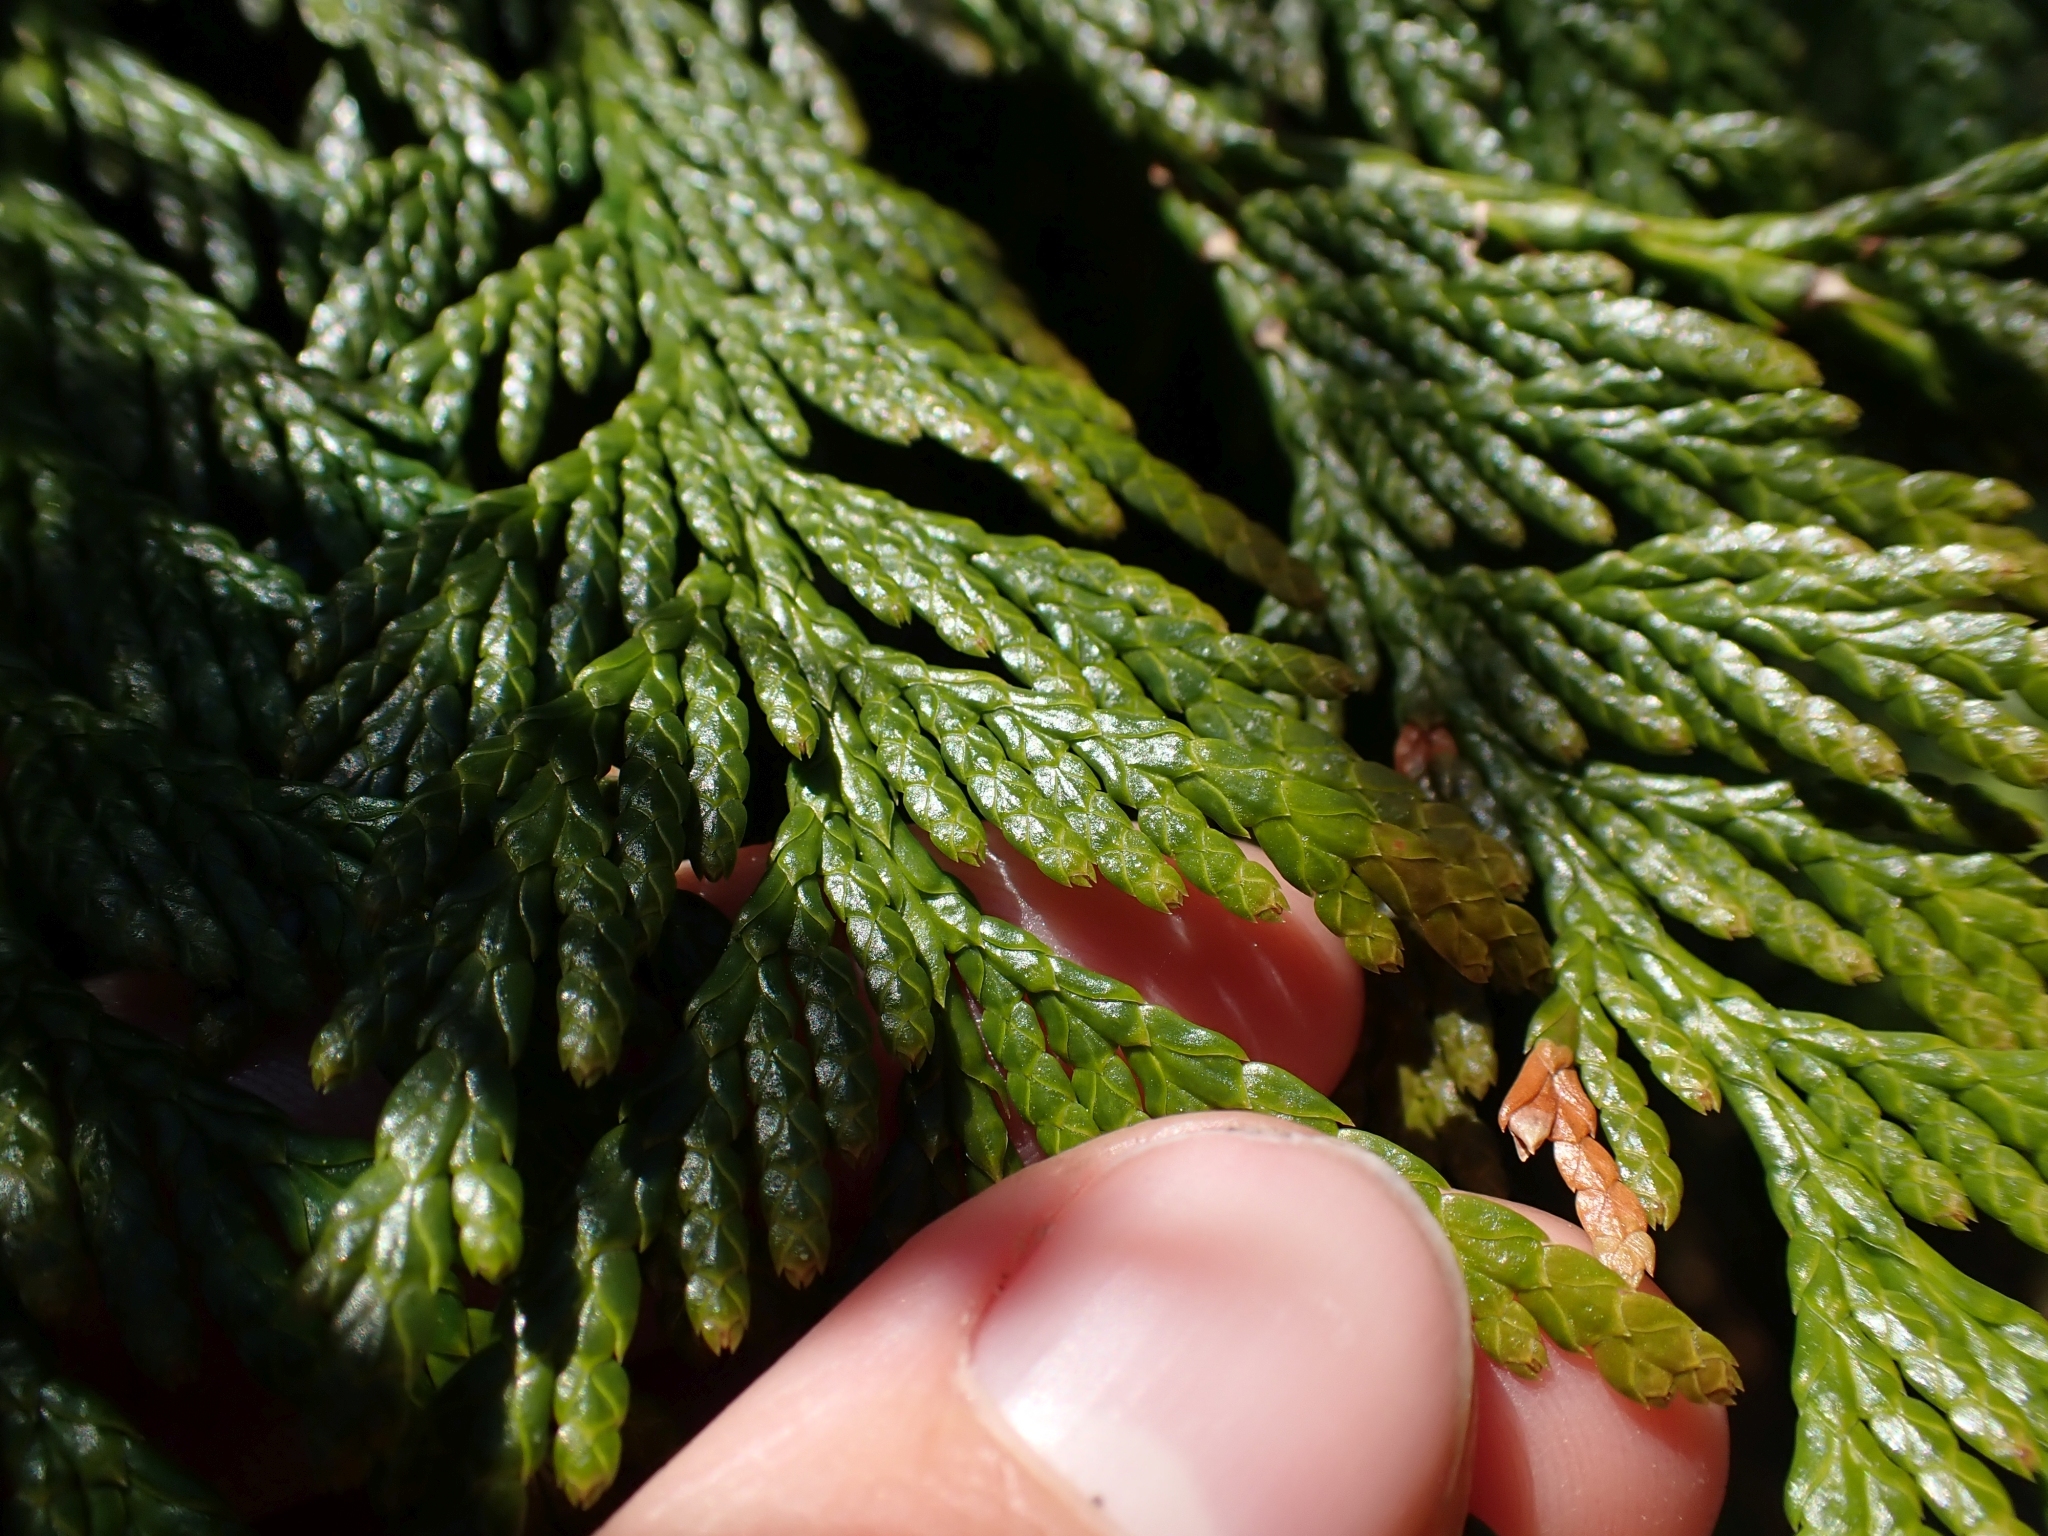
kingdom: Plantae
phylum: Tracheophyta
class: Pinopsida
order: Pinales
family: Cupressaceae
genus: Thuja
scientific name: Thuja plicata
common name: Western red-cedar
